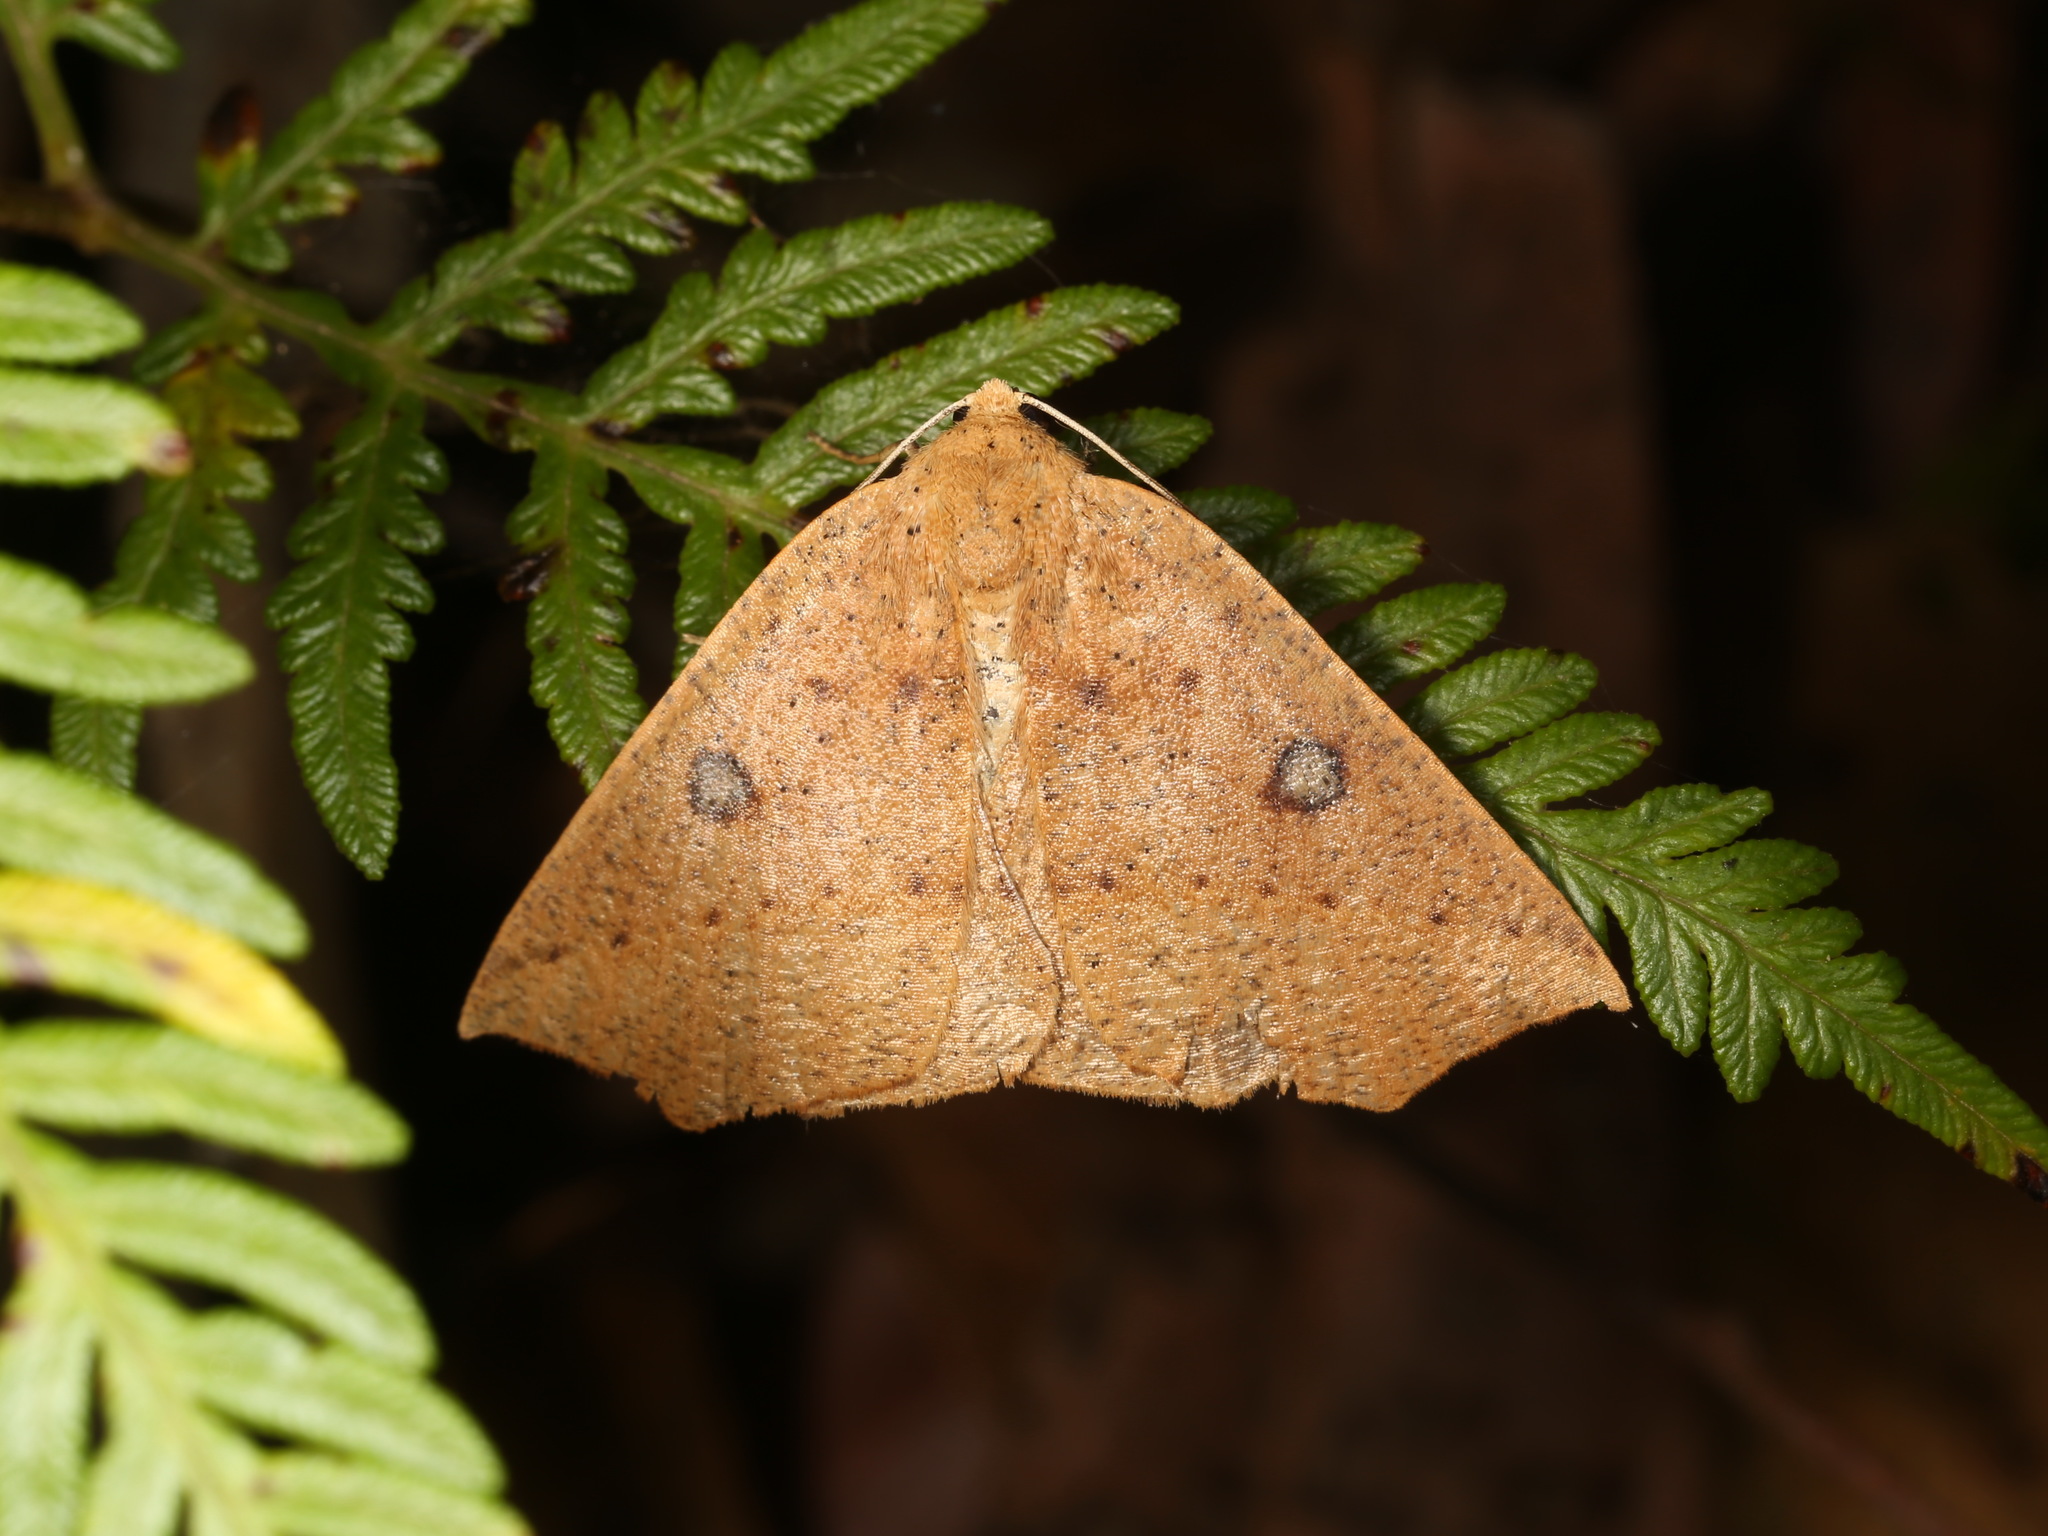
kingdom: Animalia
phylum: Arthropoda
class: Insecta
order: Lepidoptera
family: Geometridae
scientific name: Geometridae
